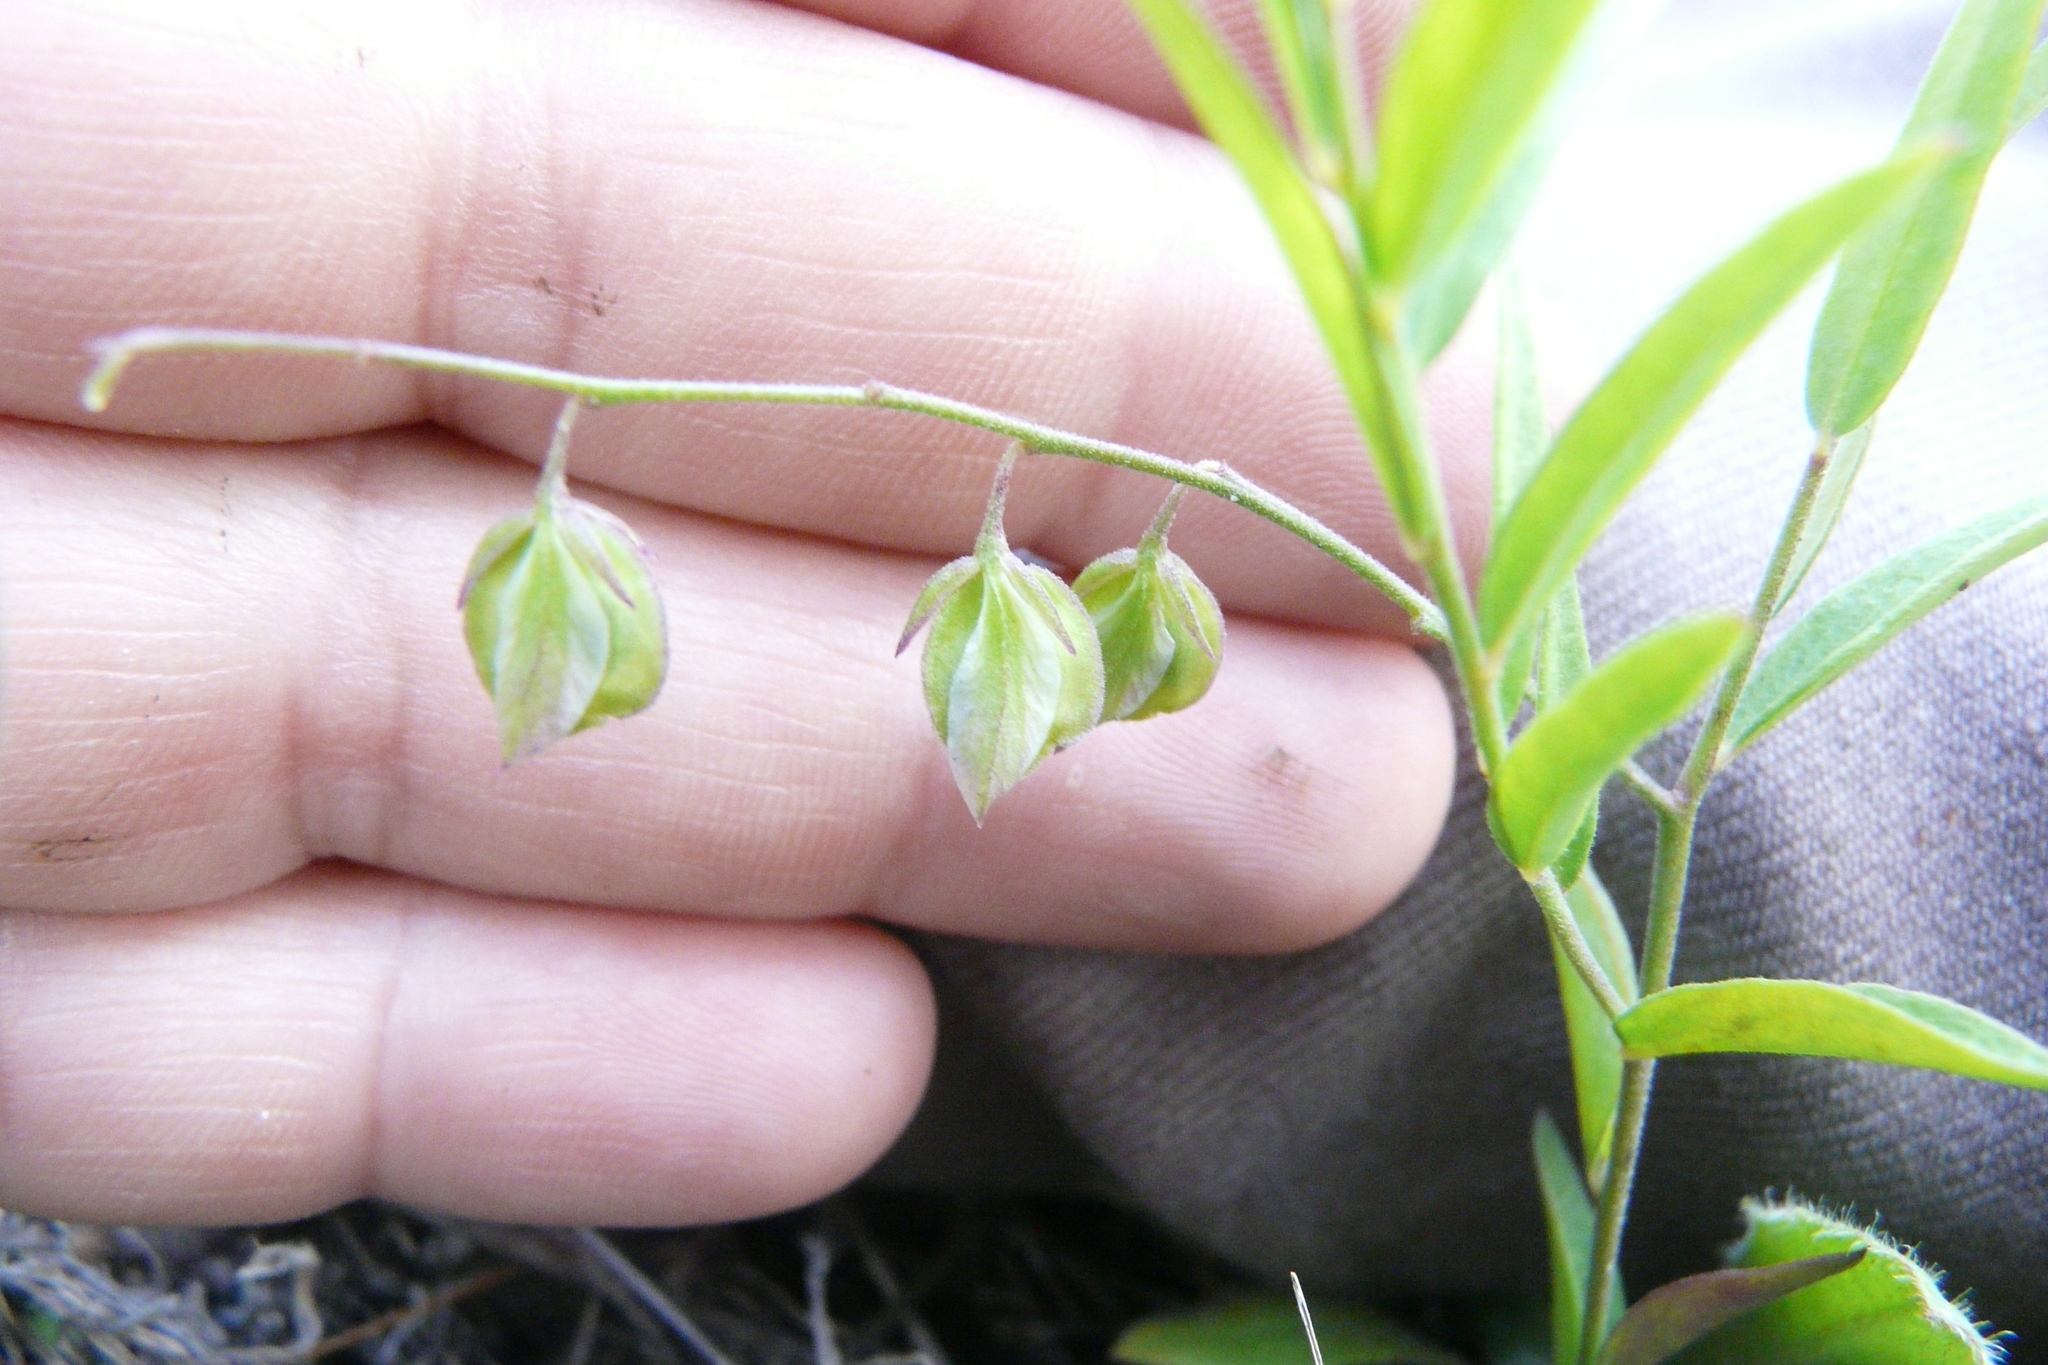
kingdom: Plantae
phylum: Tracheophyta
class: Magnoliopsida
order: Fabales
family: Polygalaceae
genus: Polygala
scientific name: Polygala sibirica
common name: Siberian polygala
